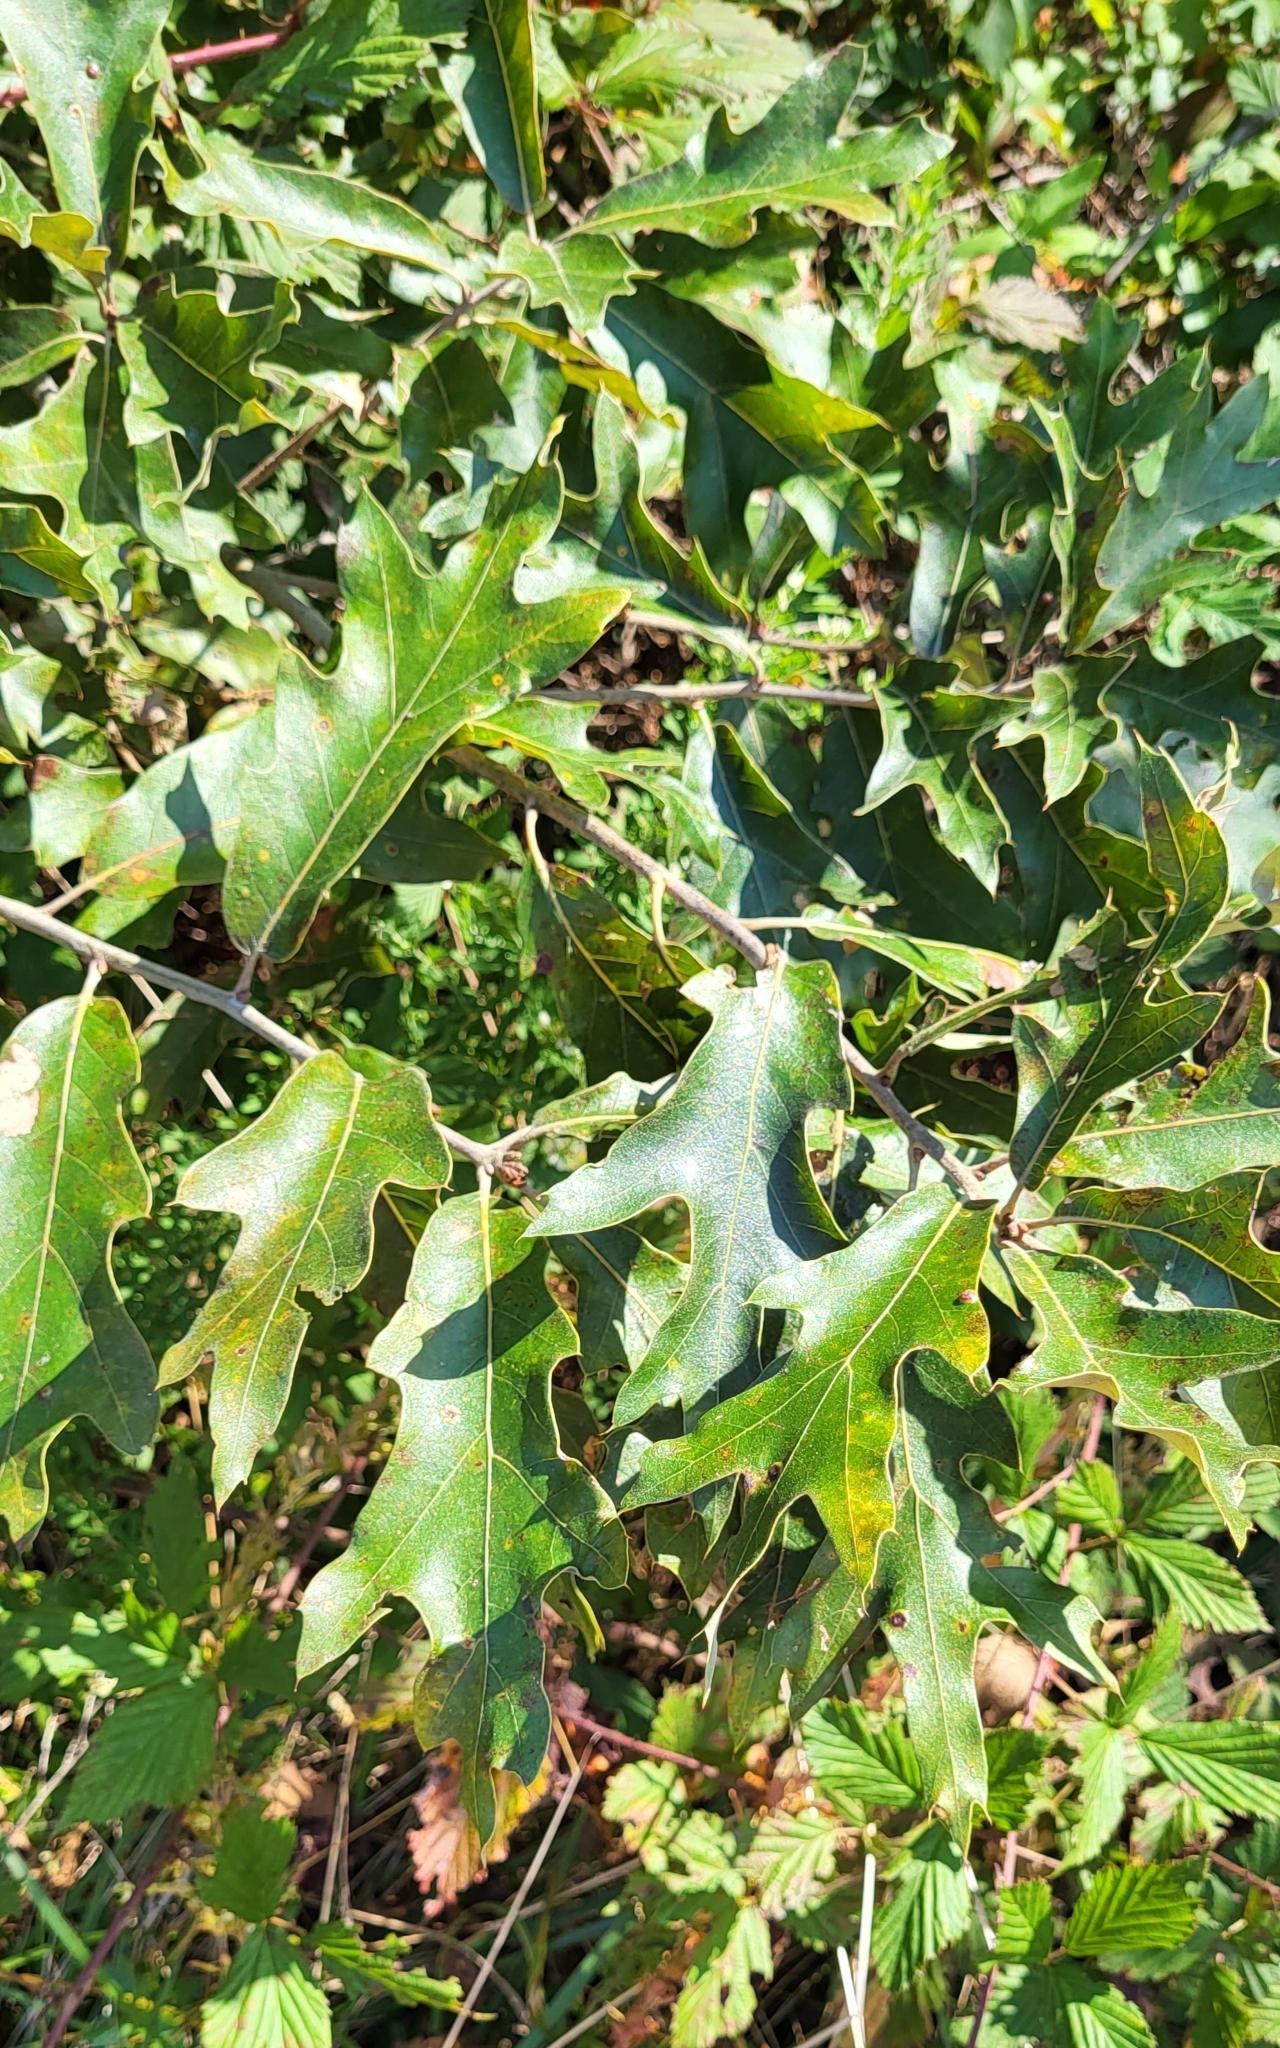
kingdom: Plantae
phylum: Tracheophyta
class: Magnoliopsida
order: Fagales
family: Fagaceae
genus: Quercus
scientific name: Quercus falcata
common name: Southern red oak
